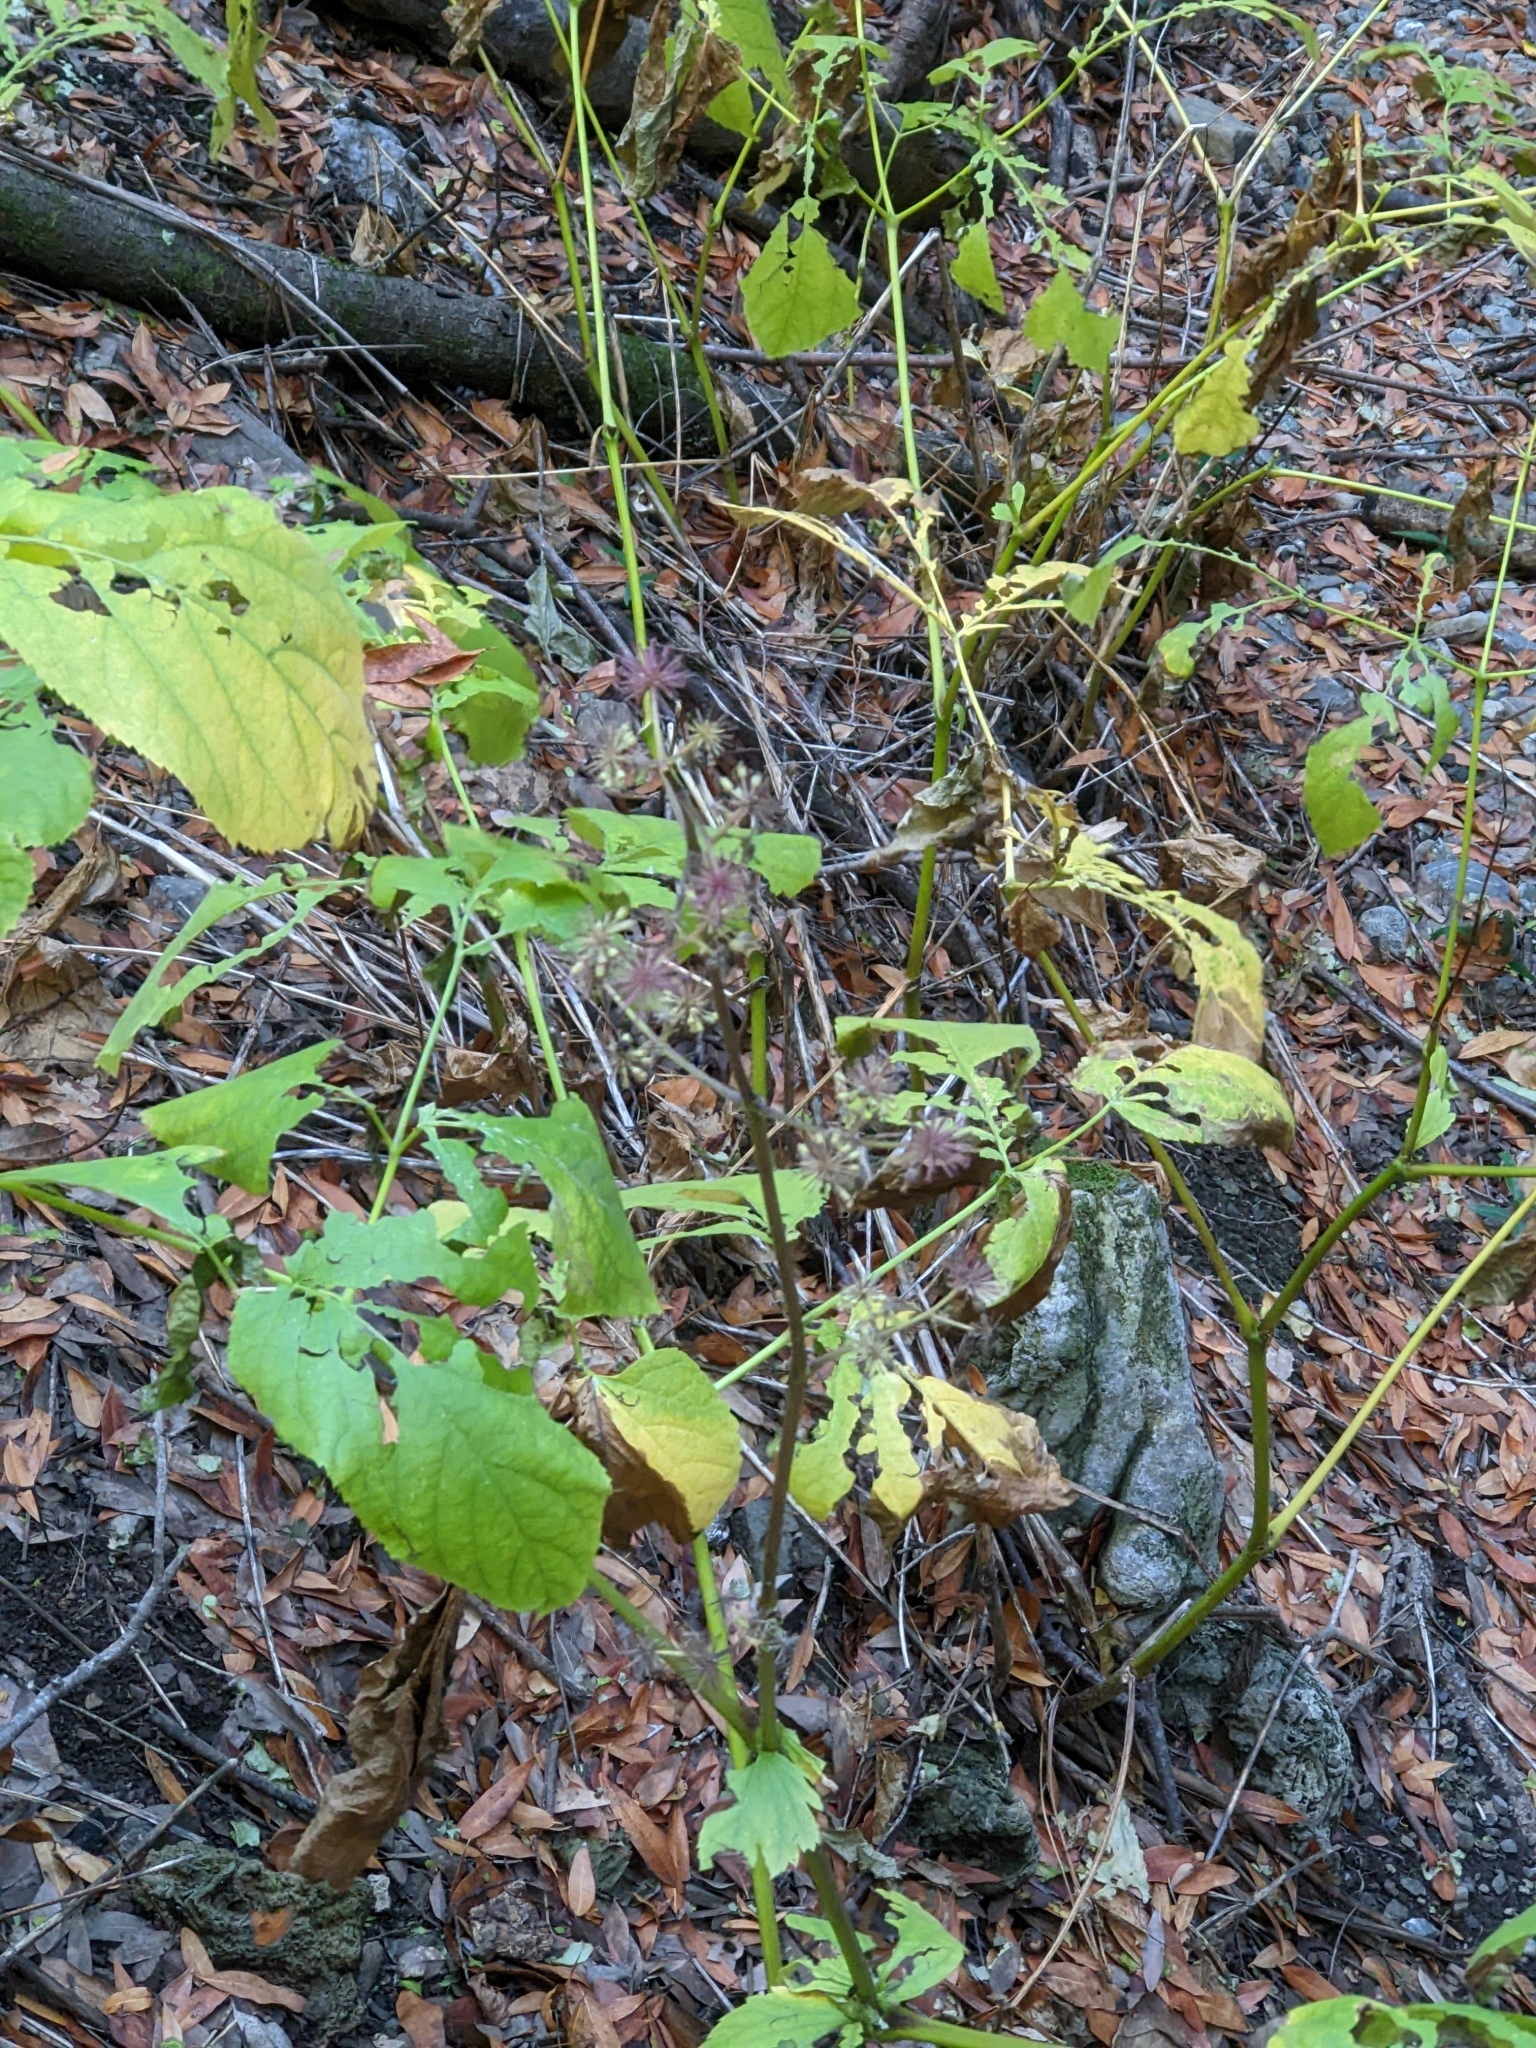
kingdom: Plantae
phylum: Tracheophyta
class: Magnoliopsida
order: Apiales
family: Araliaceae
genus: Aralia
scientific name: Aralia californica
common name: California-ginseng
